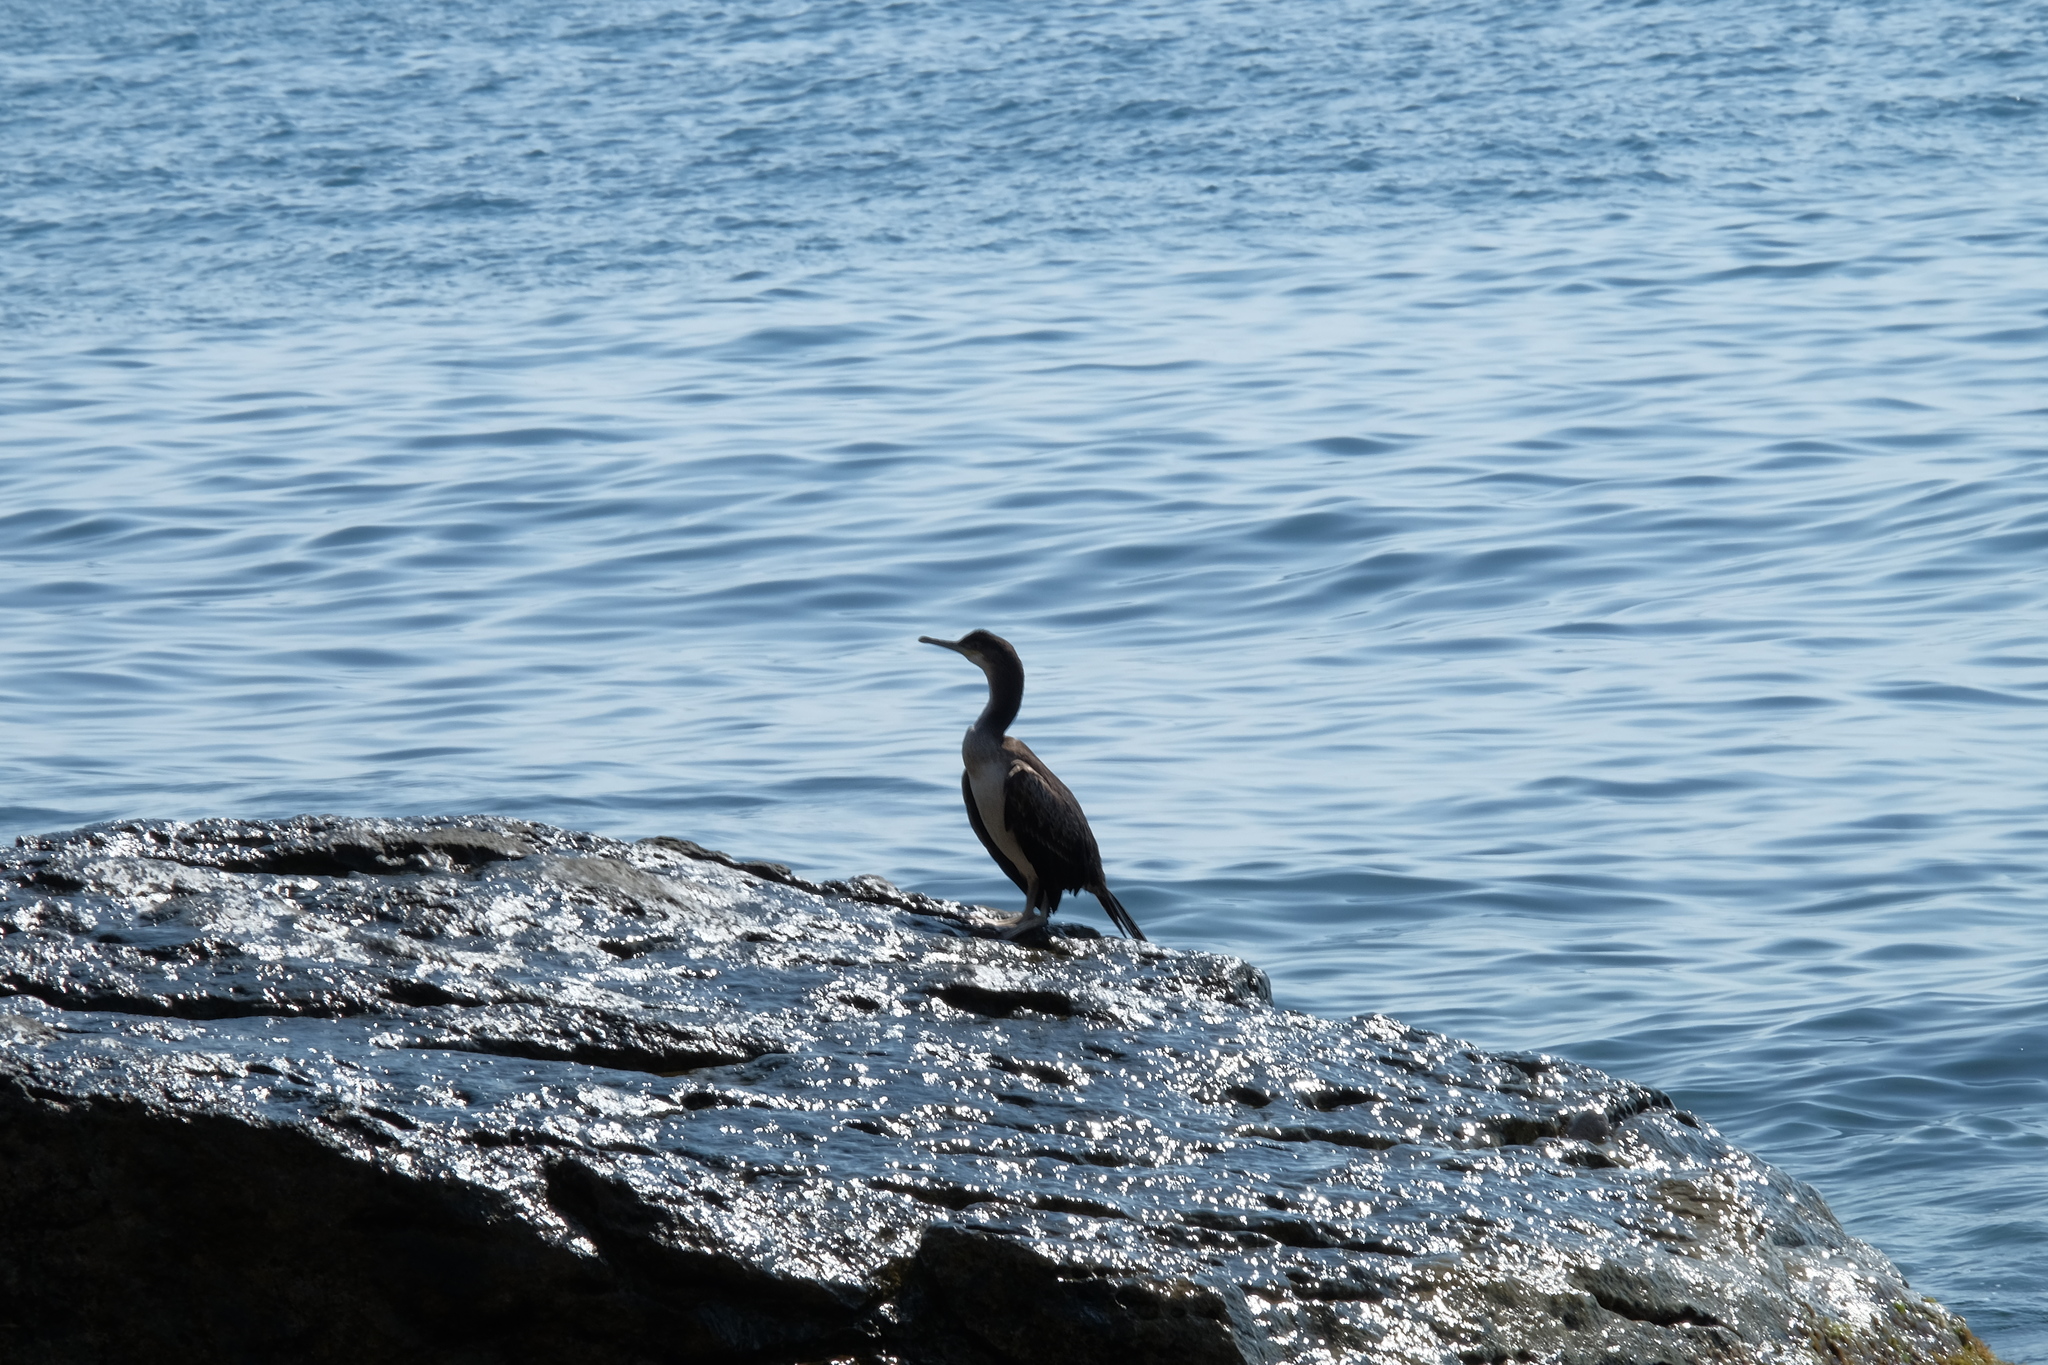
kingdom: Animalia
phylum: Chordata
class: Aves
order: Suliformes
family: Phalacrocoracidae
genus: Phalacrocorax
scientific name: Phalacrocorax aristotelis
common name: European shag
